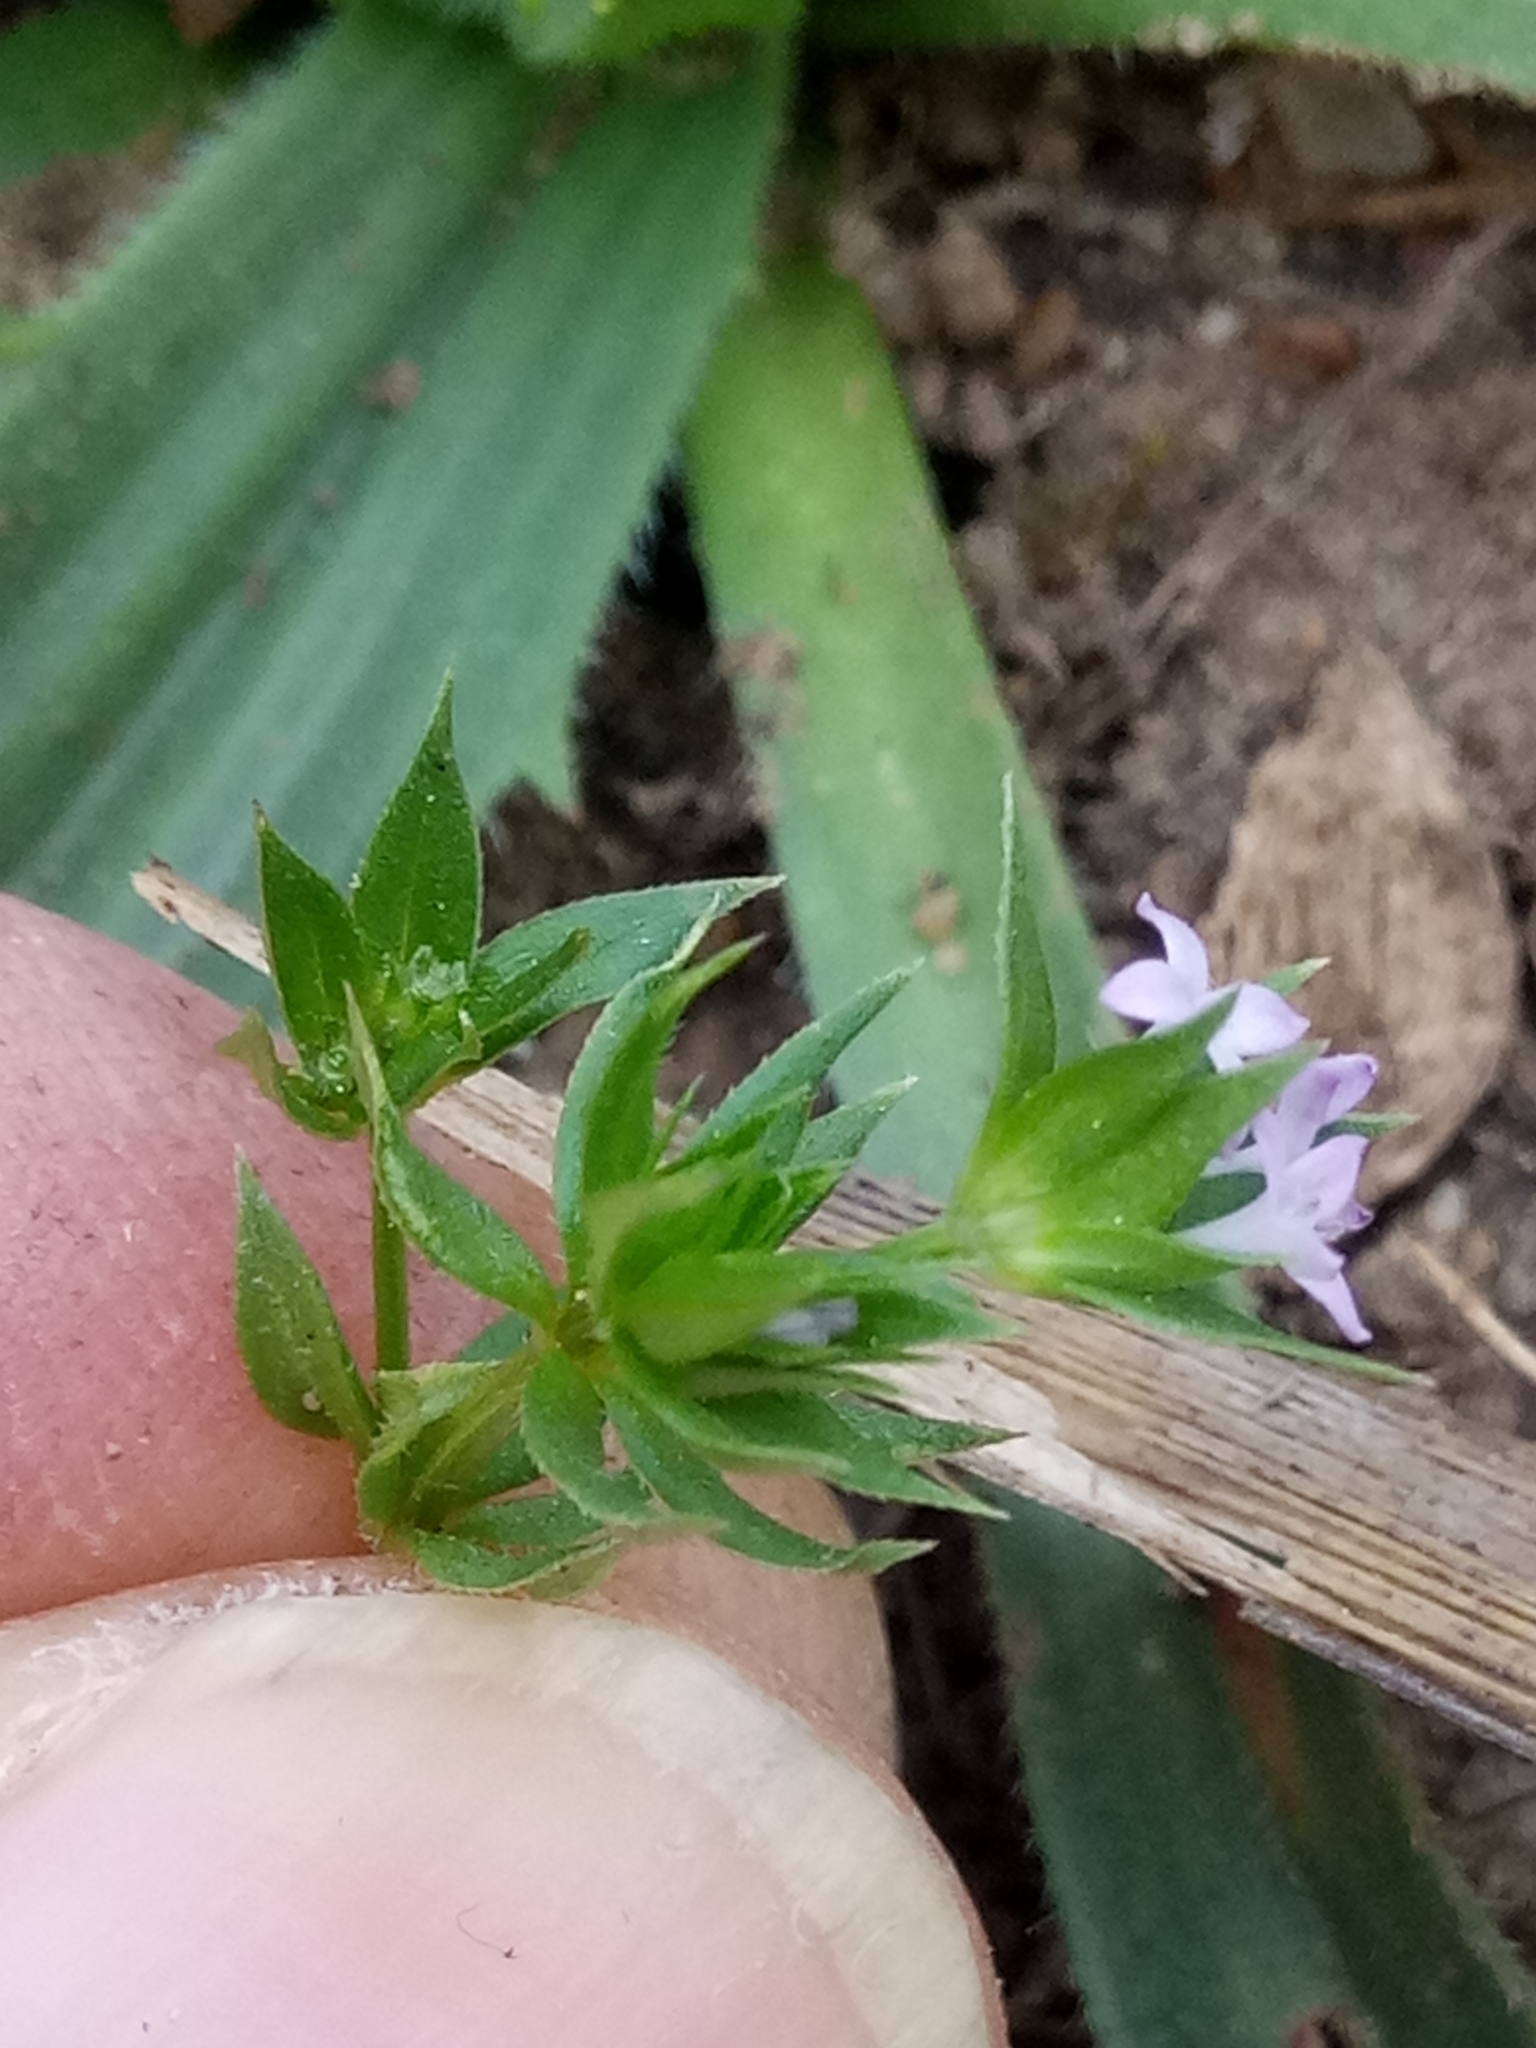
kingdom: Plantae
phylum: Tracheophyta
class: Magnoliopsida
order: Gentianales
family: Rubiaceae
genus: Sherardia
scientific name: Sherardia arvensis
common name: Field madder
